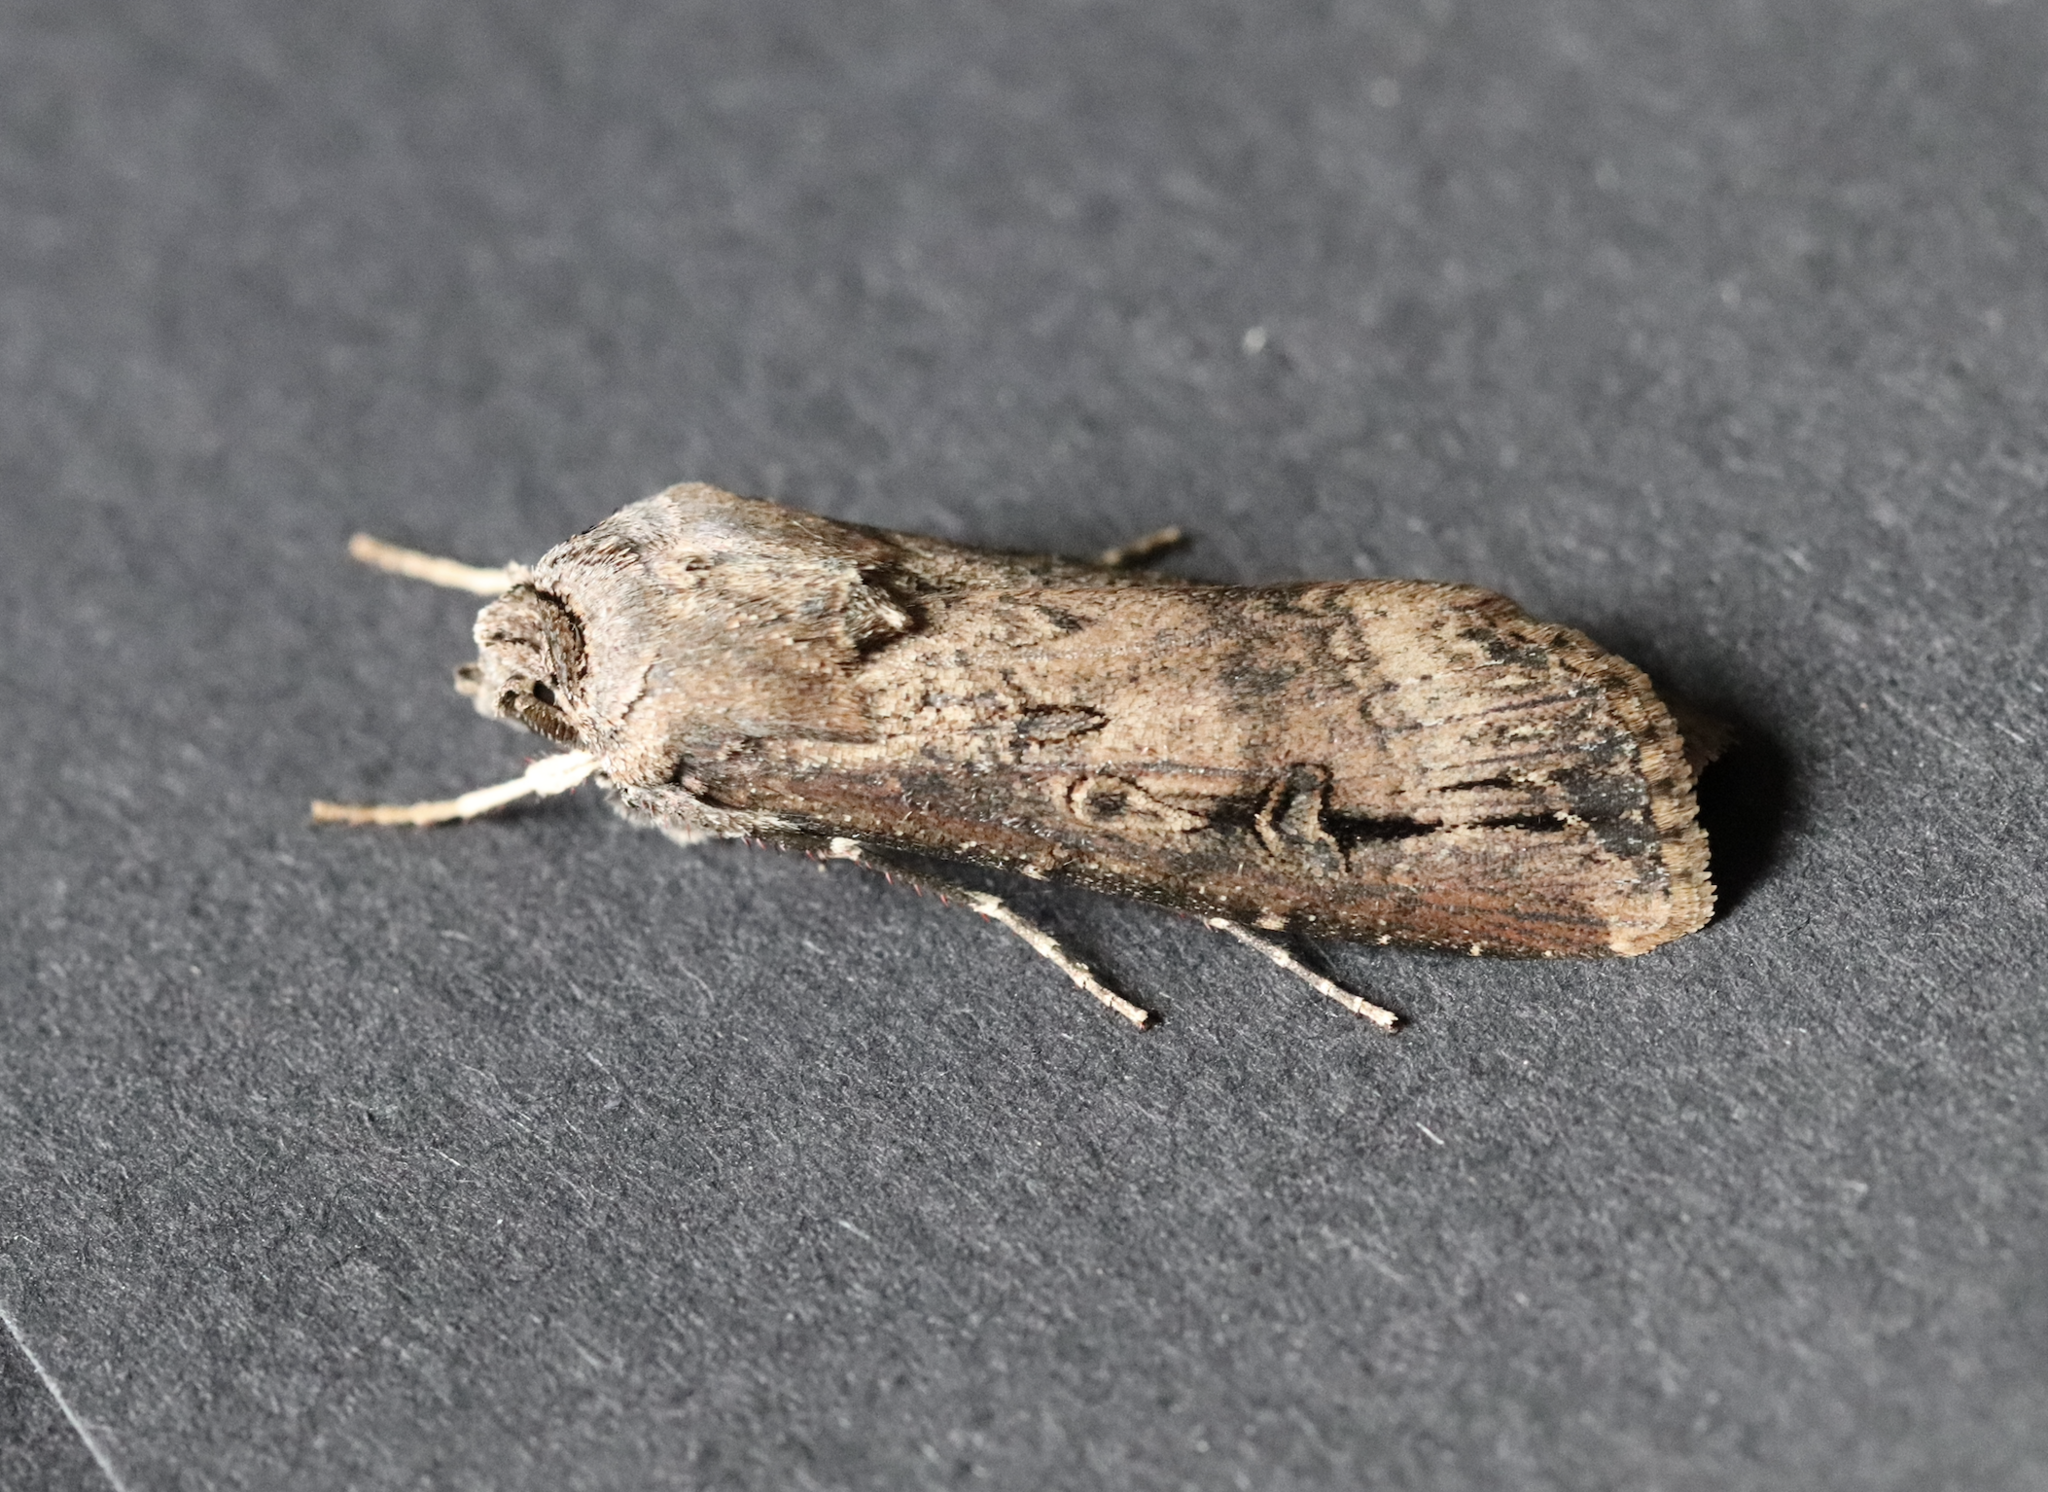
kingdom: Animalia
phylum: Arthropoda
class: Insecta
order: Lepidoptera
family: Noctuidae
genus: Agrotis
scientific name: Agrotis ipsilon
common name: Dark sword-grass
